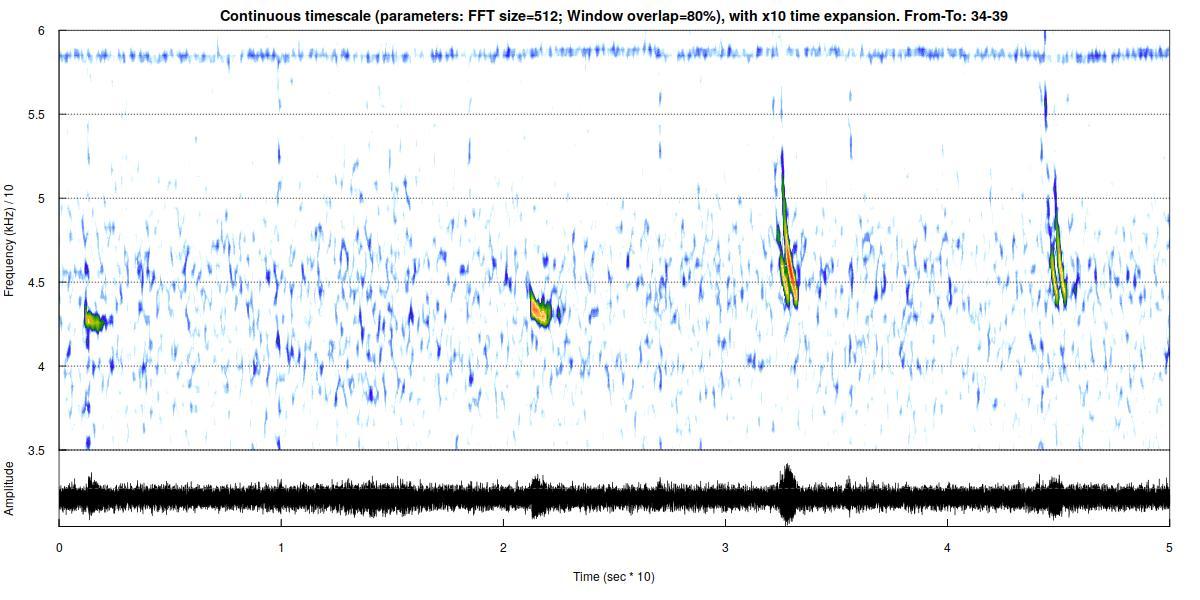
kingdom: Animalia
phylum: Chordata
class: Mammalia
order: Chiroptera
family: Vespertilionidae
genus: Pipistrellus
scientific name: Pipistrellus pipistrellus
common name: Common pipistrelle
